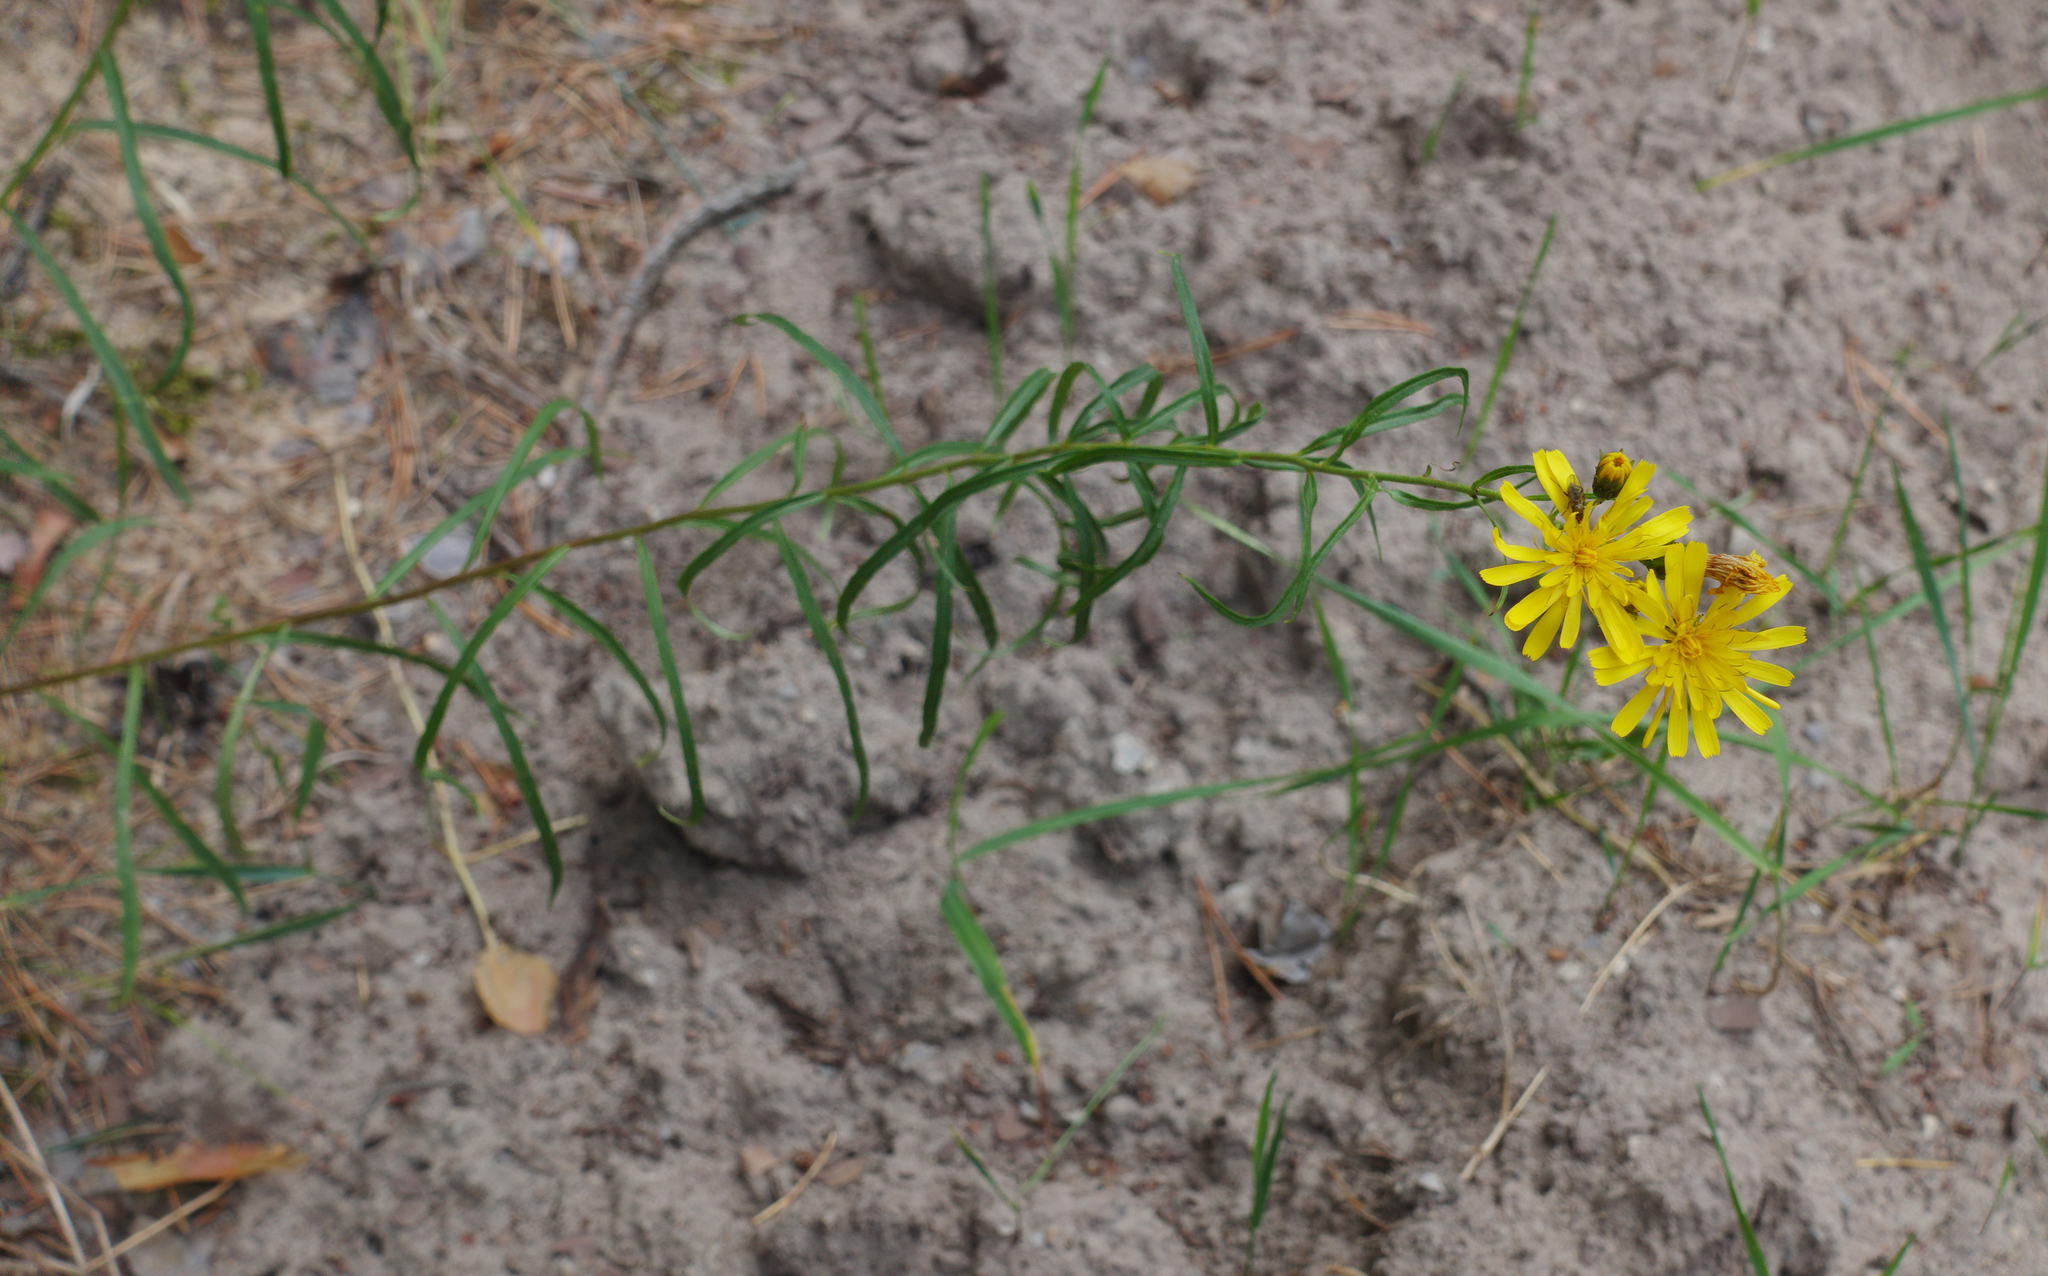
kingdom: Plantae
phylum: Tracheophyta
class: Magnoliopsida
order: Asterales
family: Asteraceae
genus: Hieracium
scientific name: Hieracium umbellatum
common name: Northern hawkweed
